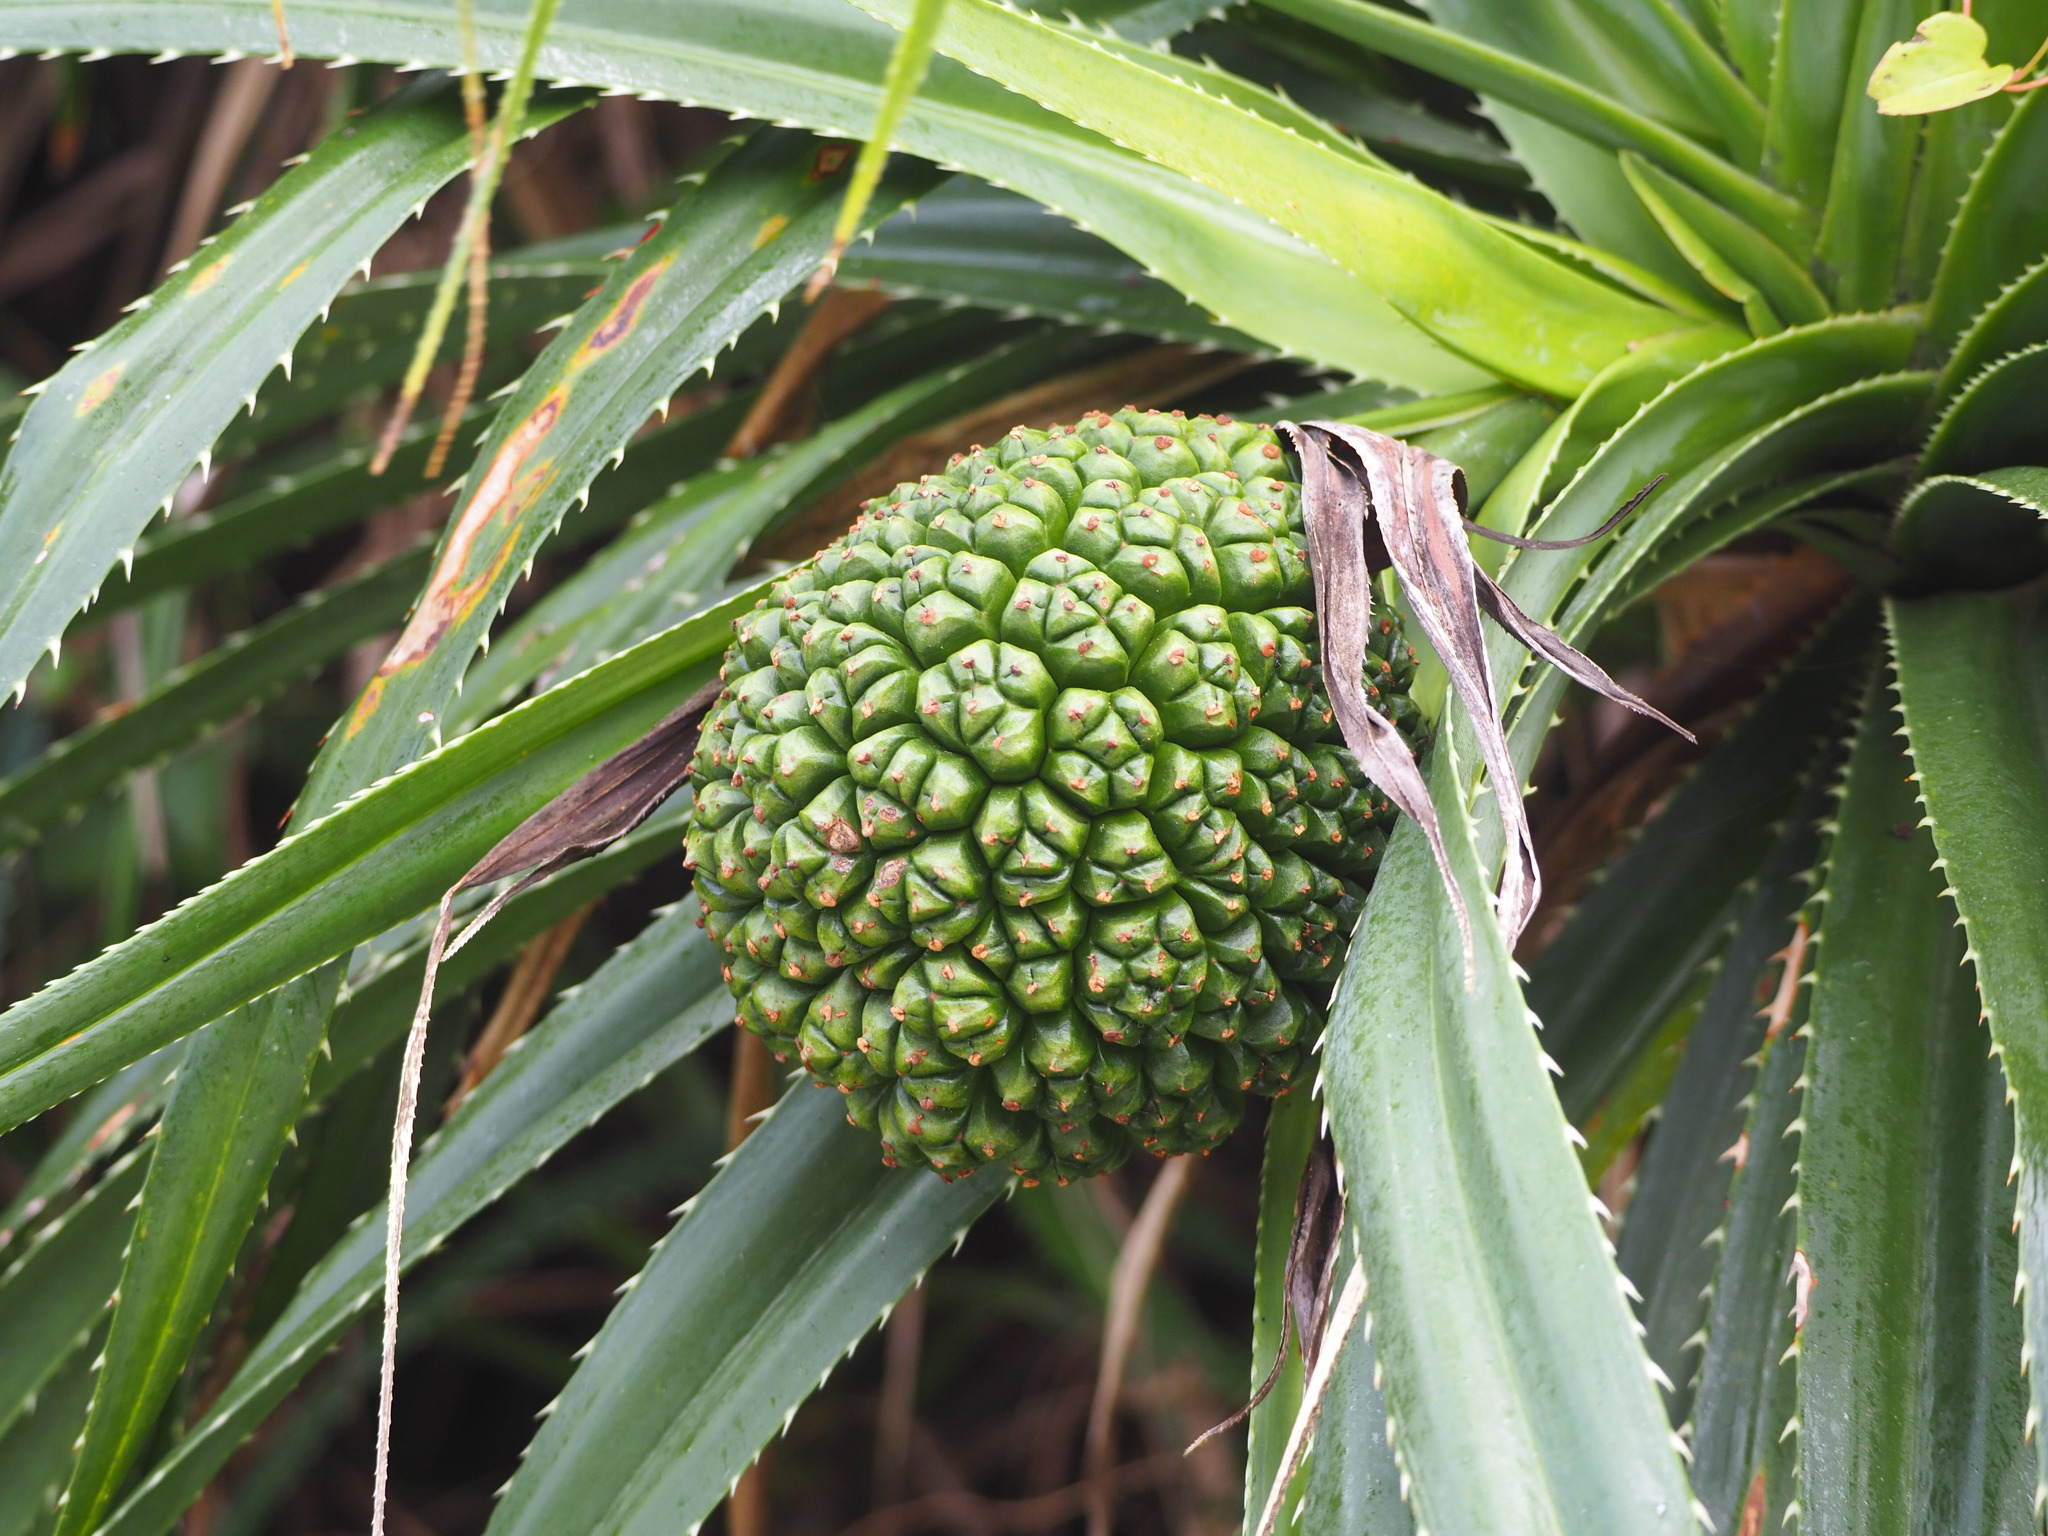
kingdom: Plantae
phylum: Tracheophyta
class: Liliopsida
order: Pandanales
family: Pandanaceae
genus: Pandanus
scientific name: Pandanus odorifer
